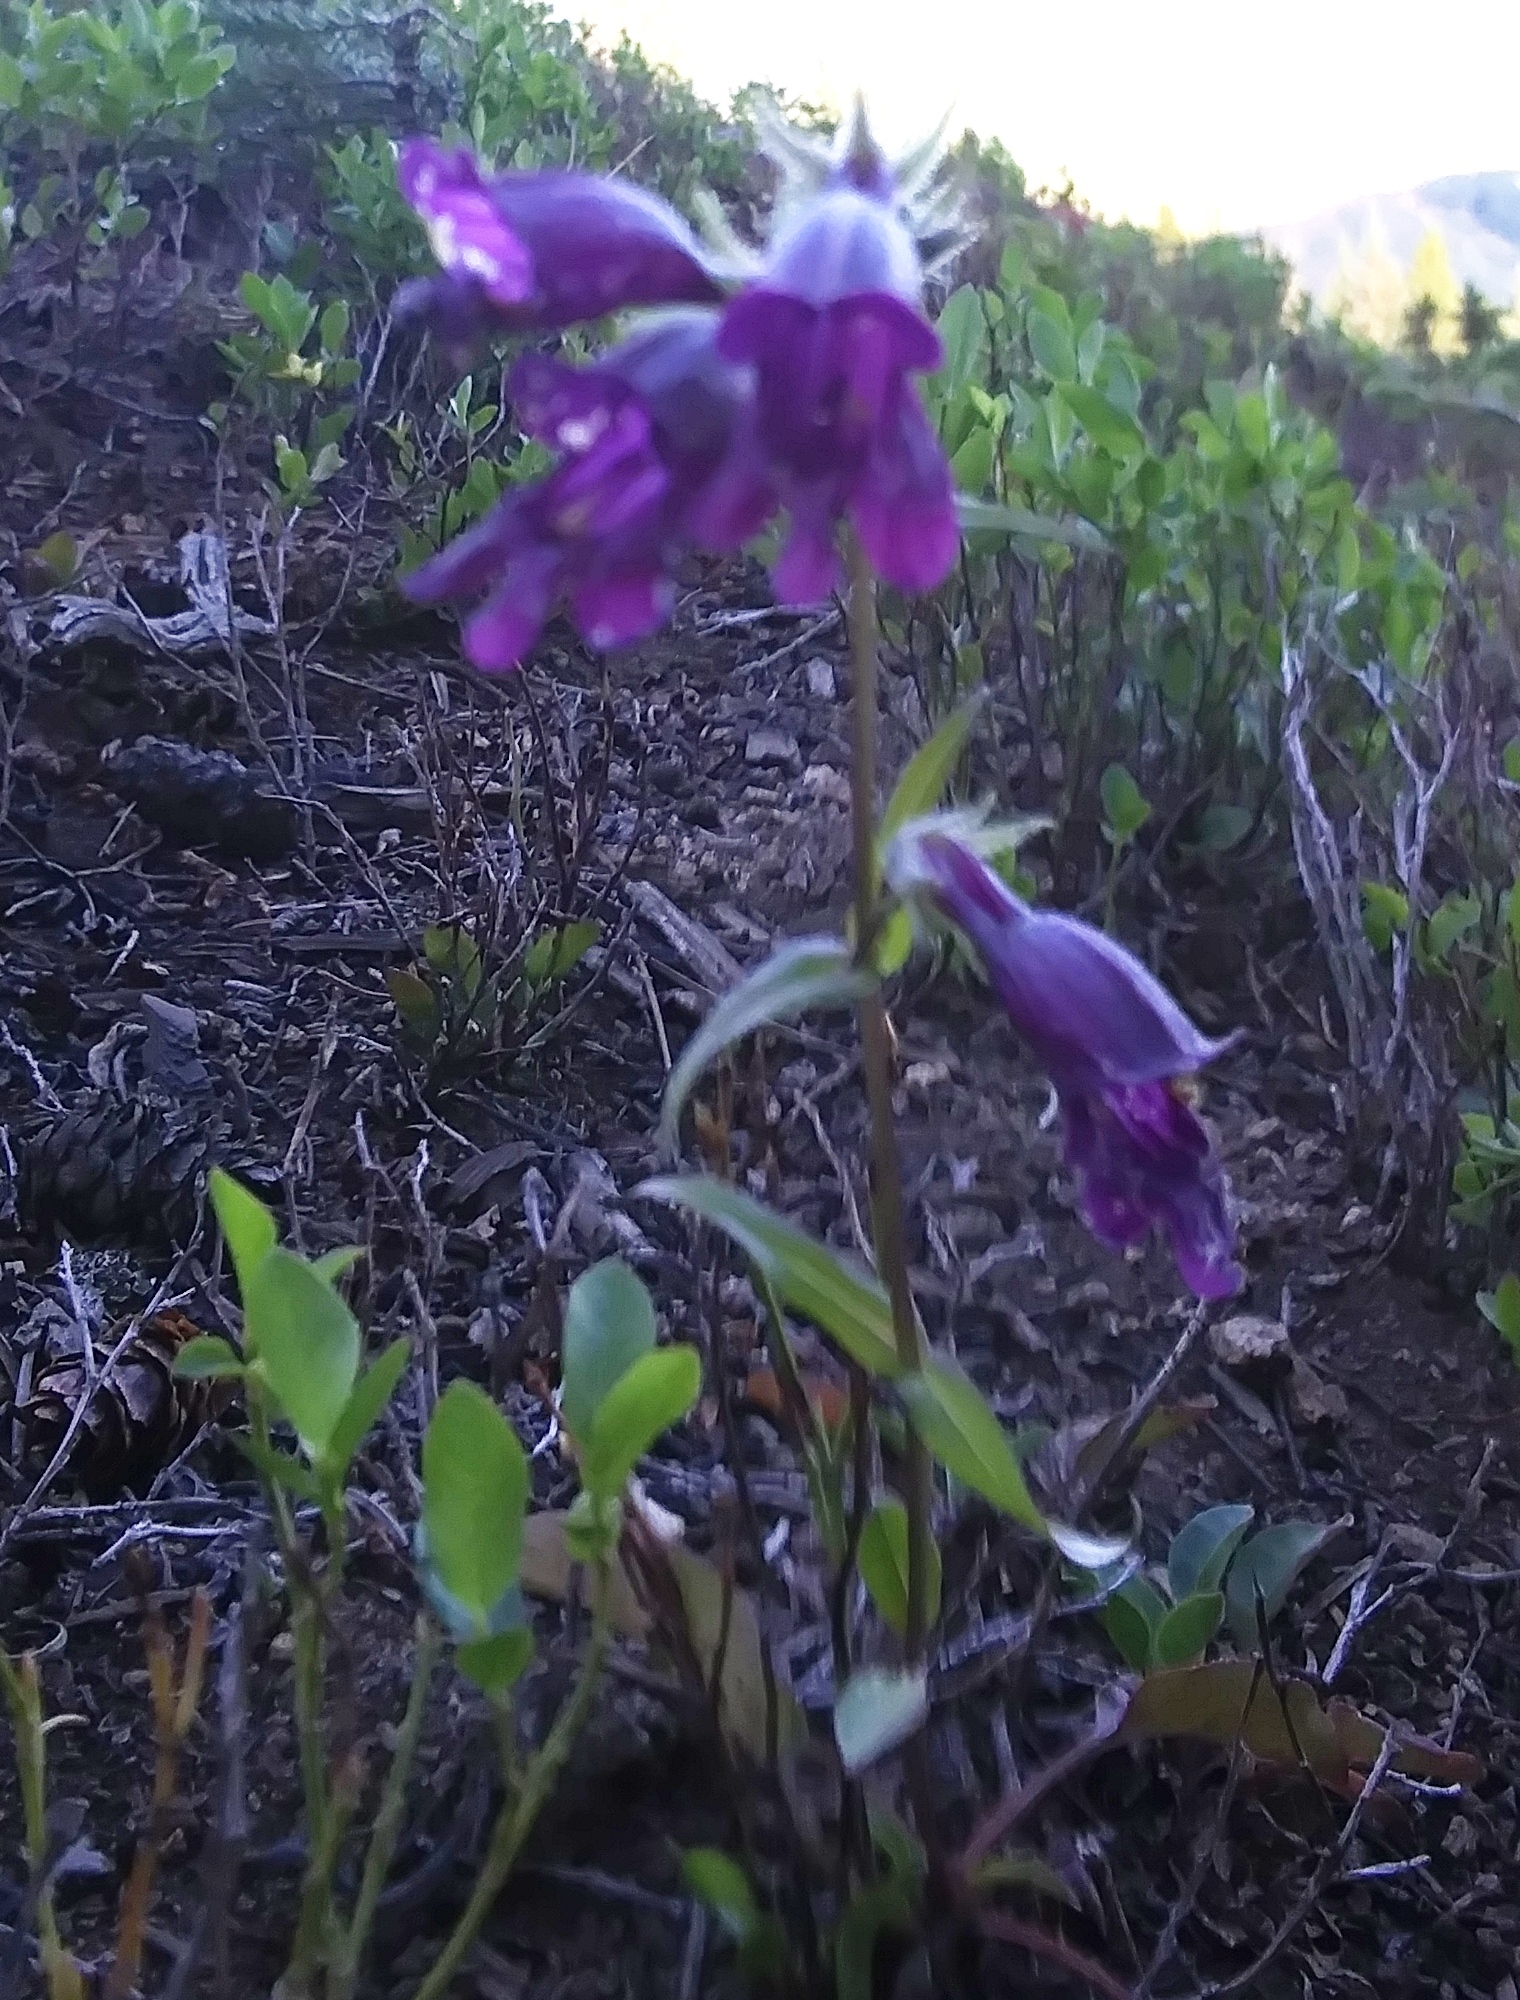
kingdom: Plantae
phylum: Tracheophyta
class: Magnoliopsida
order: Lamiales
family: Plantaginaceae
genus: Penstemon
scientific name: Penstemon whippleanus
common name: Whipple's penstemon
